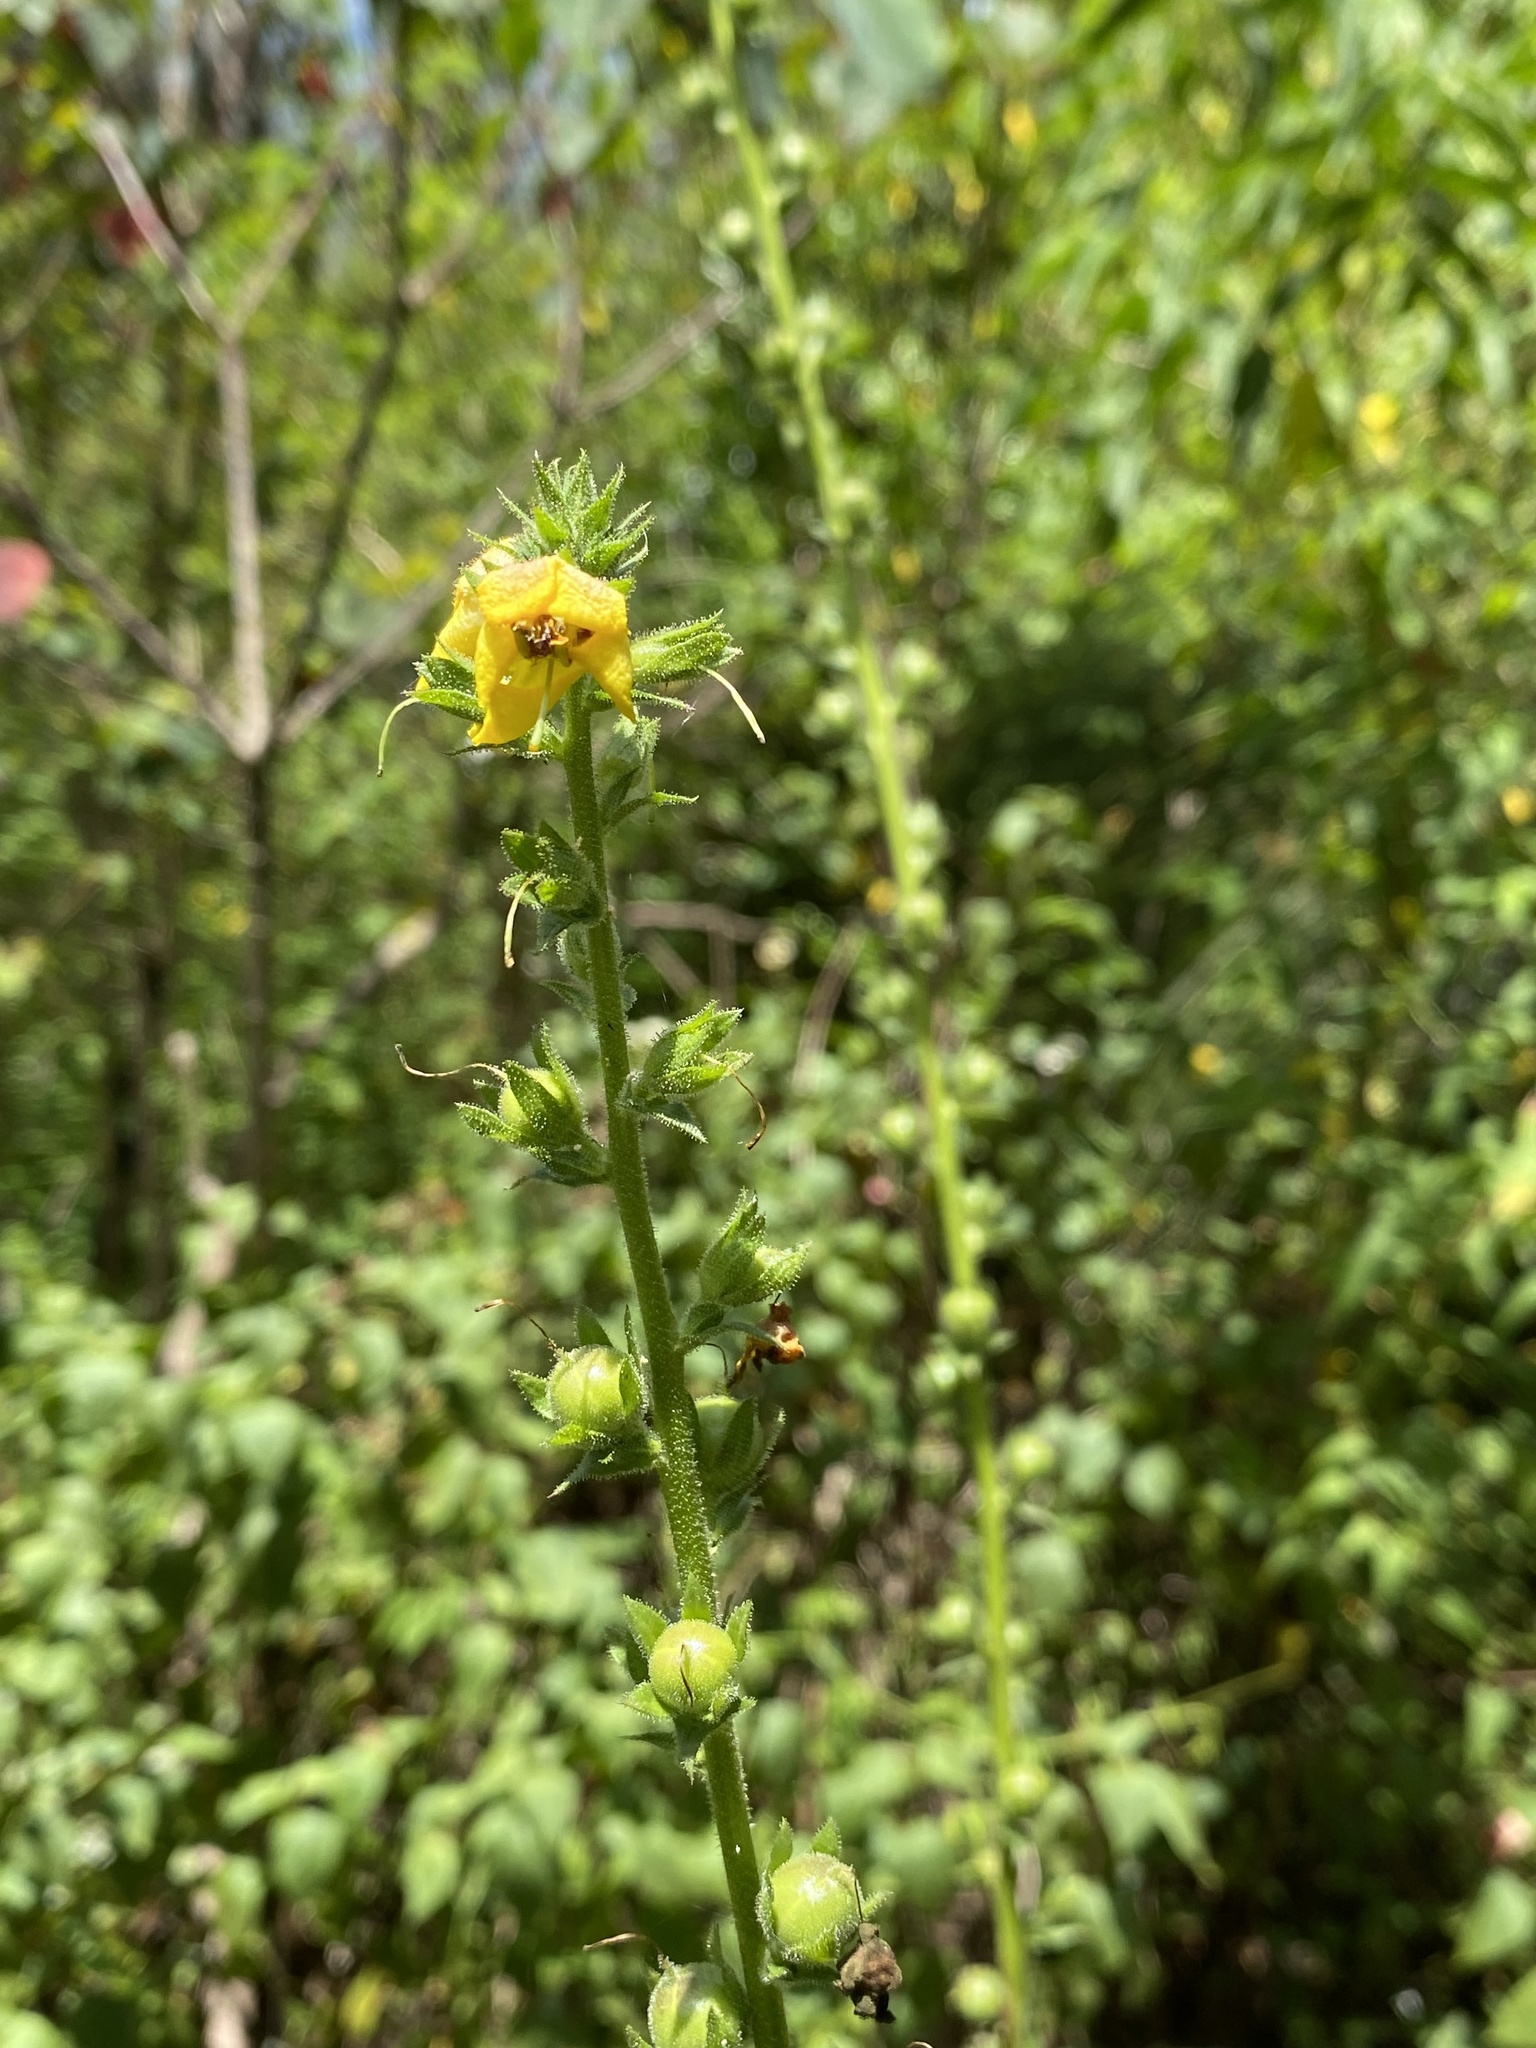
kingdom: Plantae
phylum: Tracheophyta
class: Magnoliopsida
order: Lamiales
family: Scrophulariaceae
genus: Verbascum
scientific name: Verbascum virgatum
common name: Twiggy mullein
